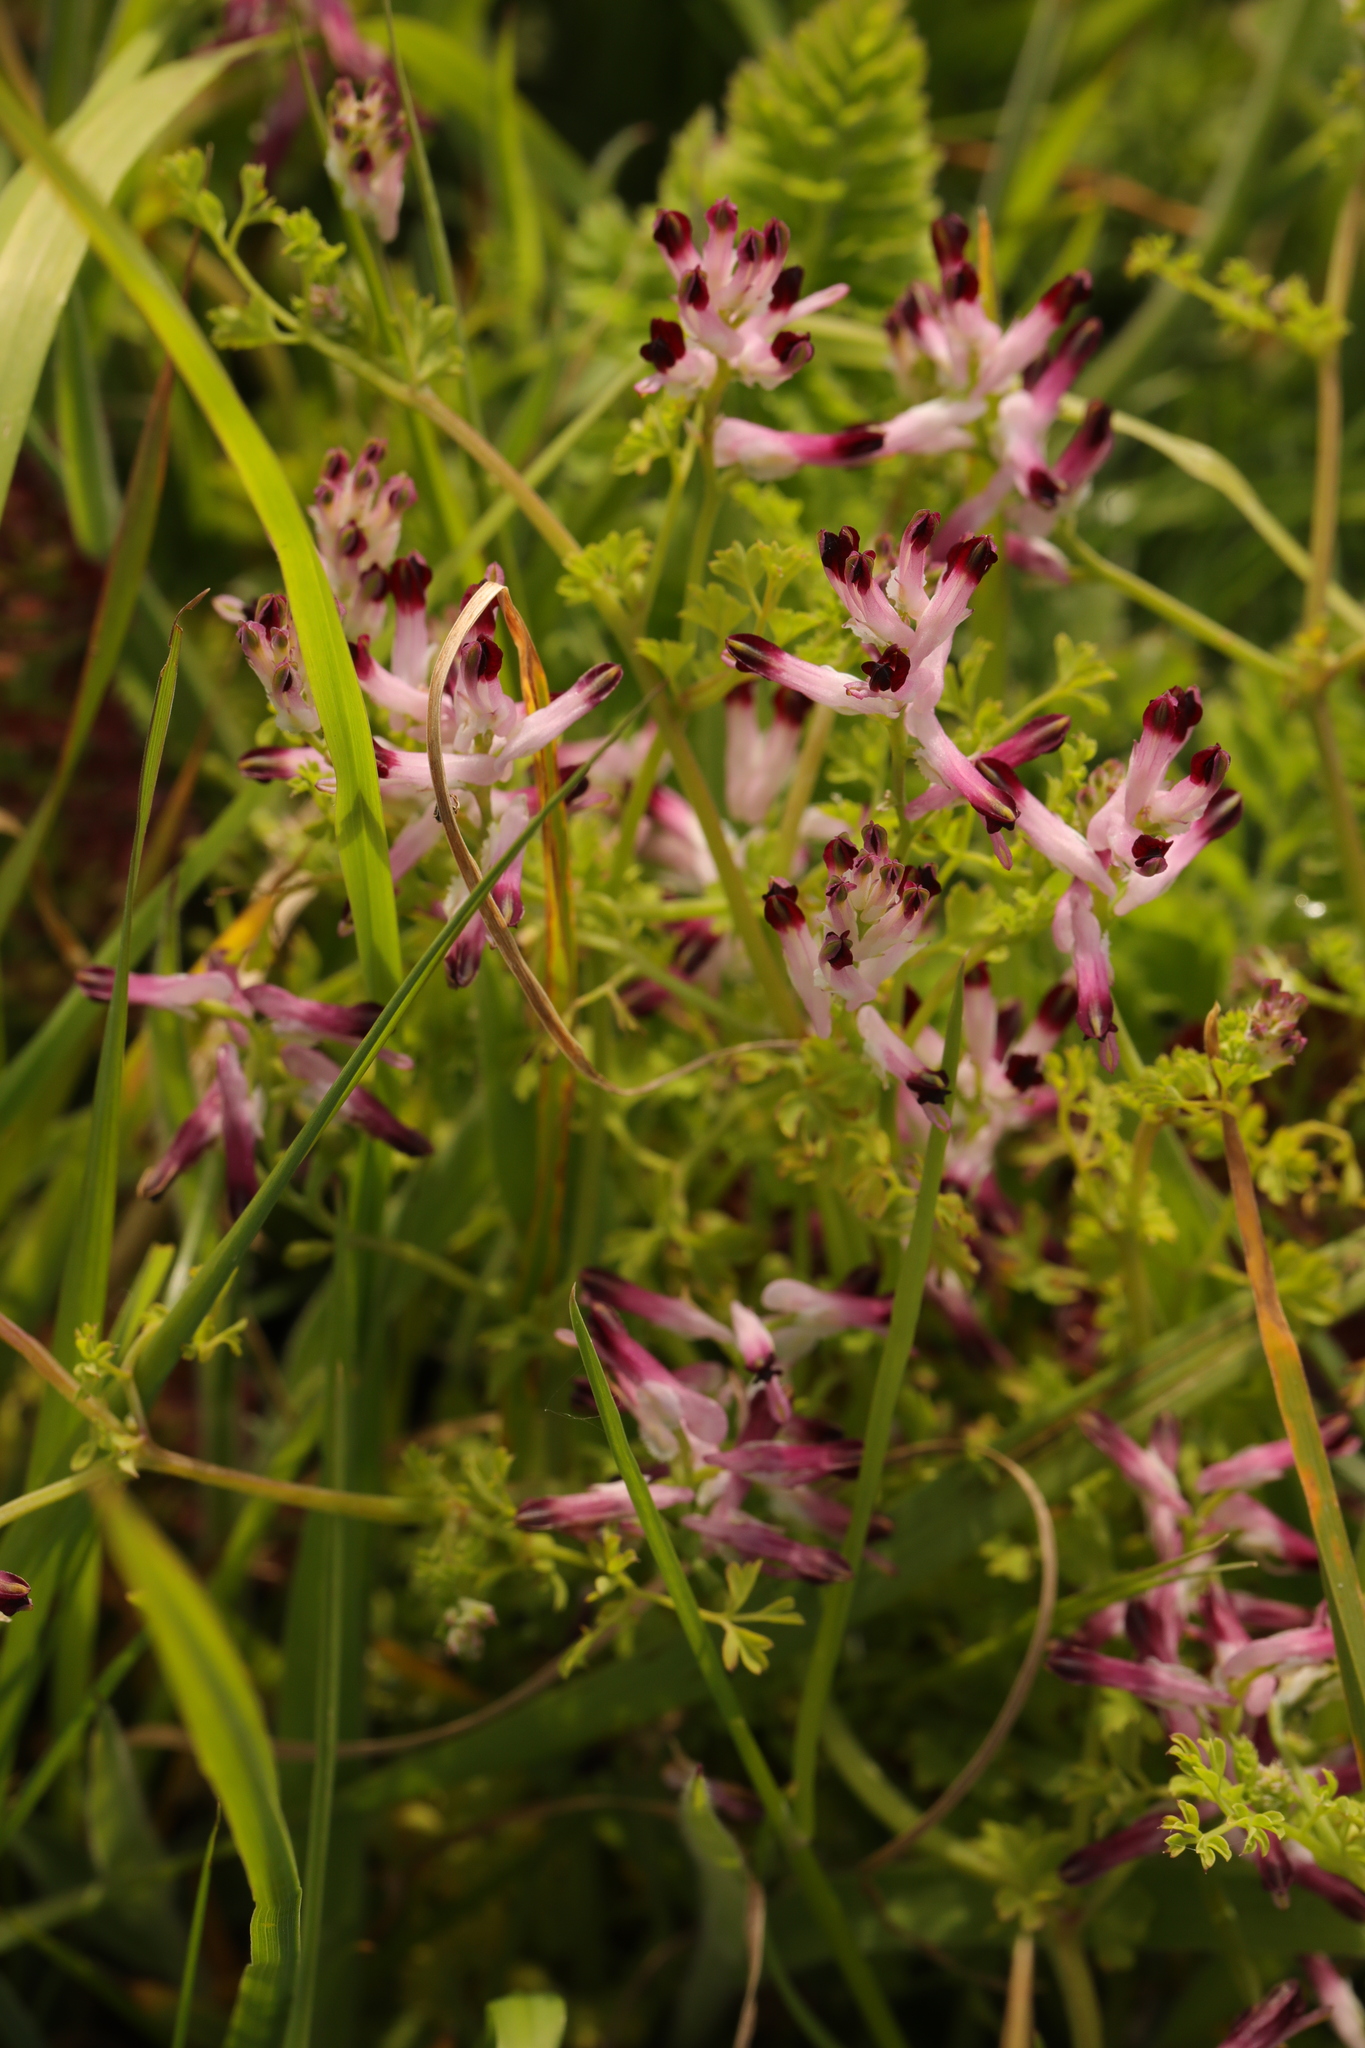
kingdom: Plantae
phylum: Tracheophyta
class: Magnoliopsida
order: Ranunculales
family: Papaveraceae
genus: Fumaria
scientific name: Fumaria muralis
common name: Common ramping-fumitory
